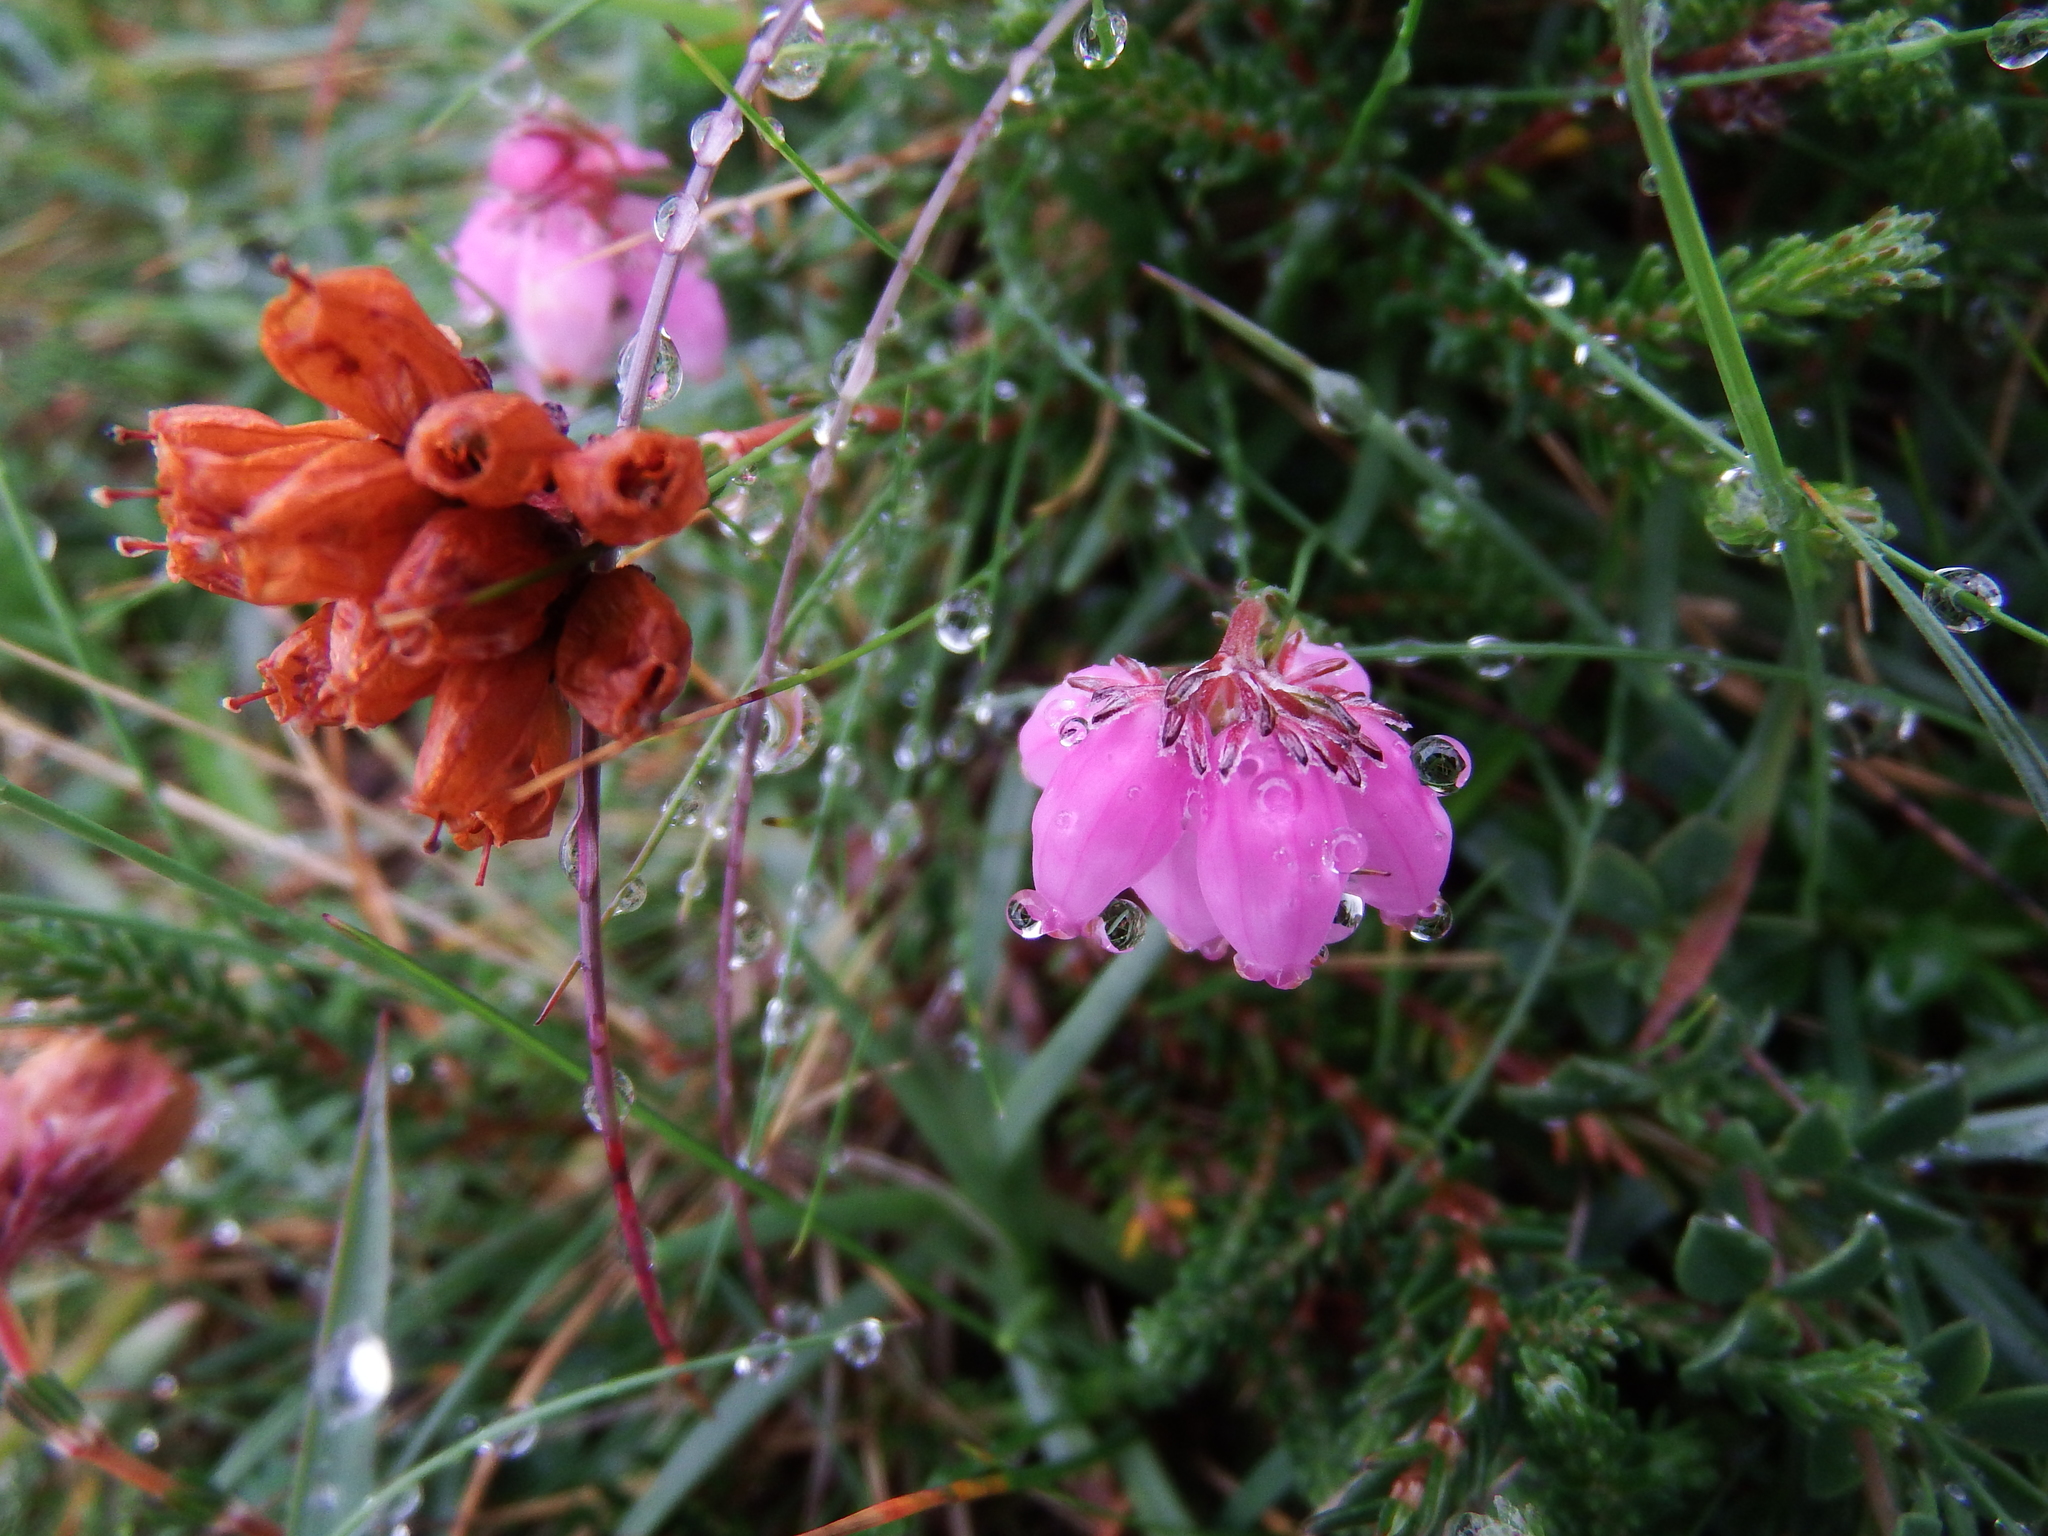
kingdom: Plantae
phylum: Tracheophyta
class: Magnoliopsida
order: Ericales
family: Ericaceae
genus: Erica
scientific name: Erica tetralix
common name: Cross-leaved heath
